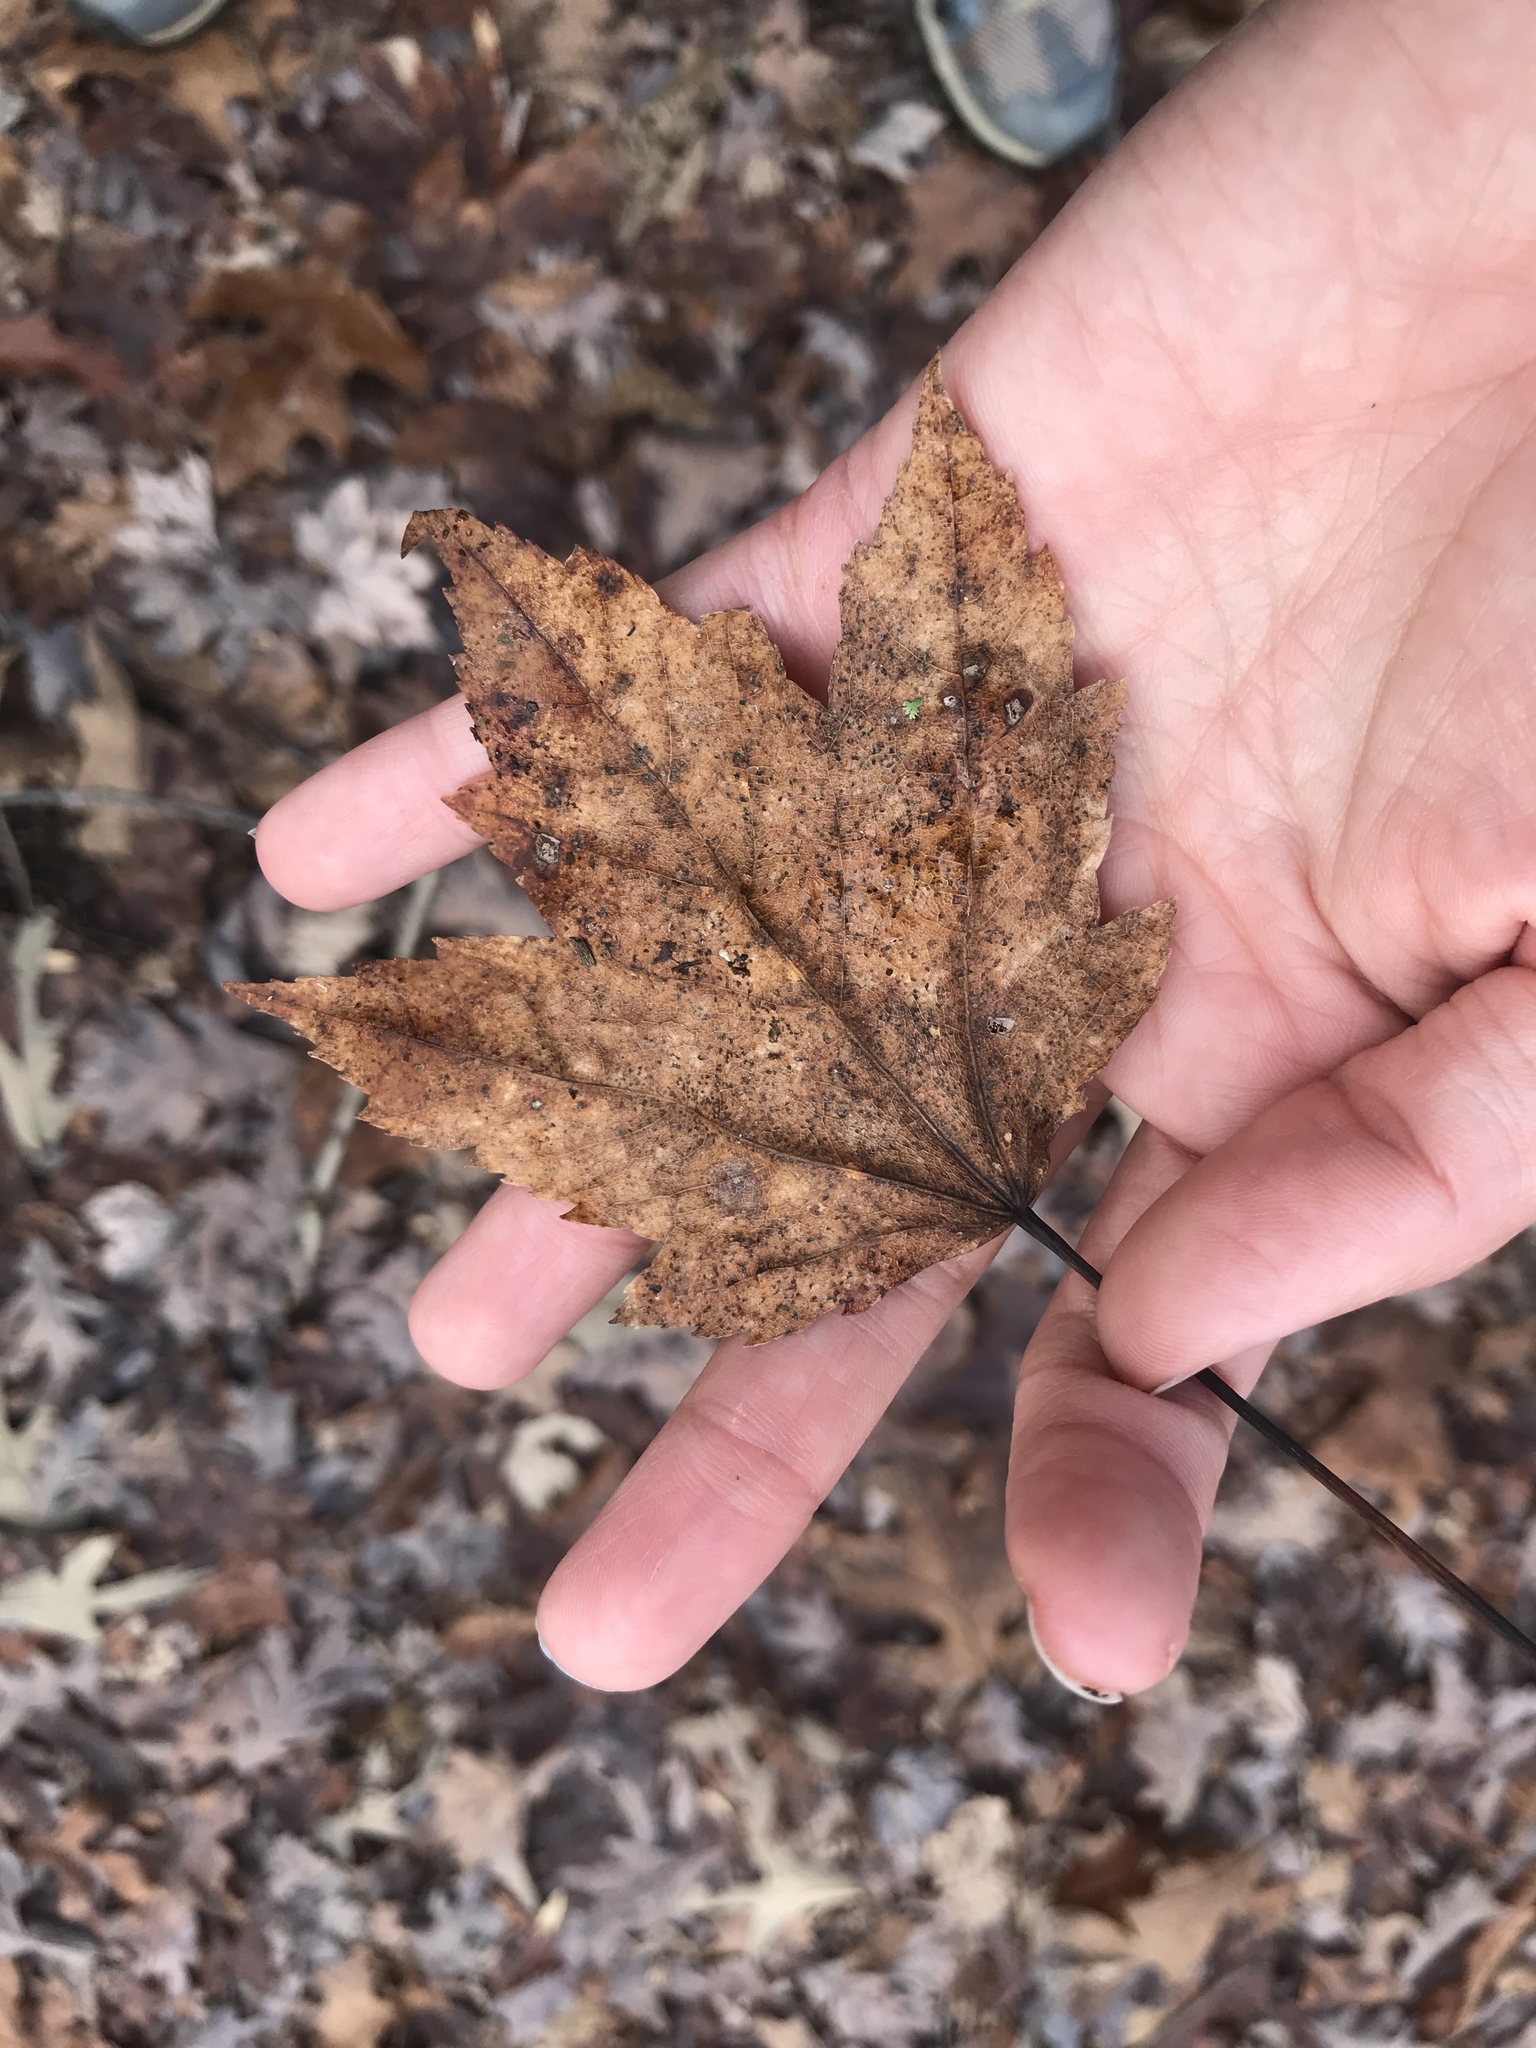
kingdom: Plantae
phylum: Tracheophyta
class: Magnoliopsida
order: Sapindales
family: Sapindaceae
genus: Acer
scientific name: Acer rubrum
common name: Red maple
